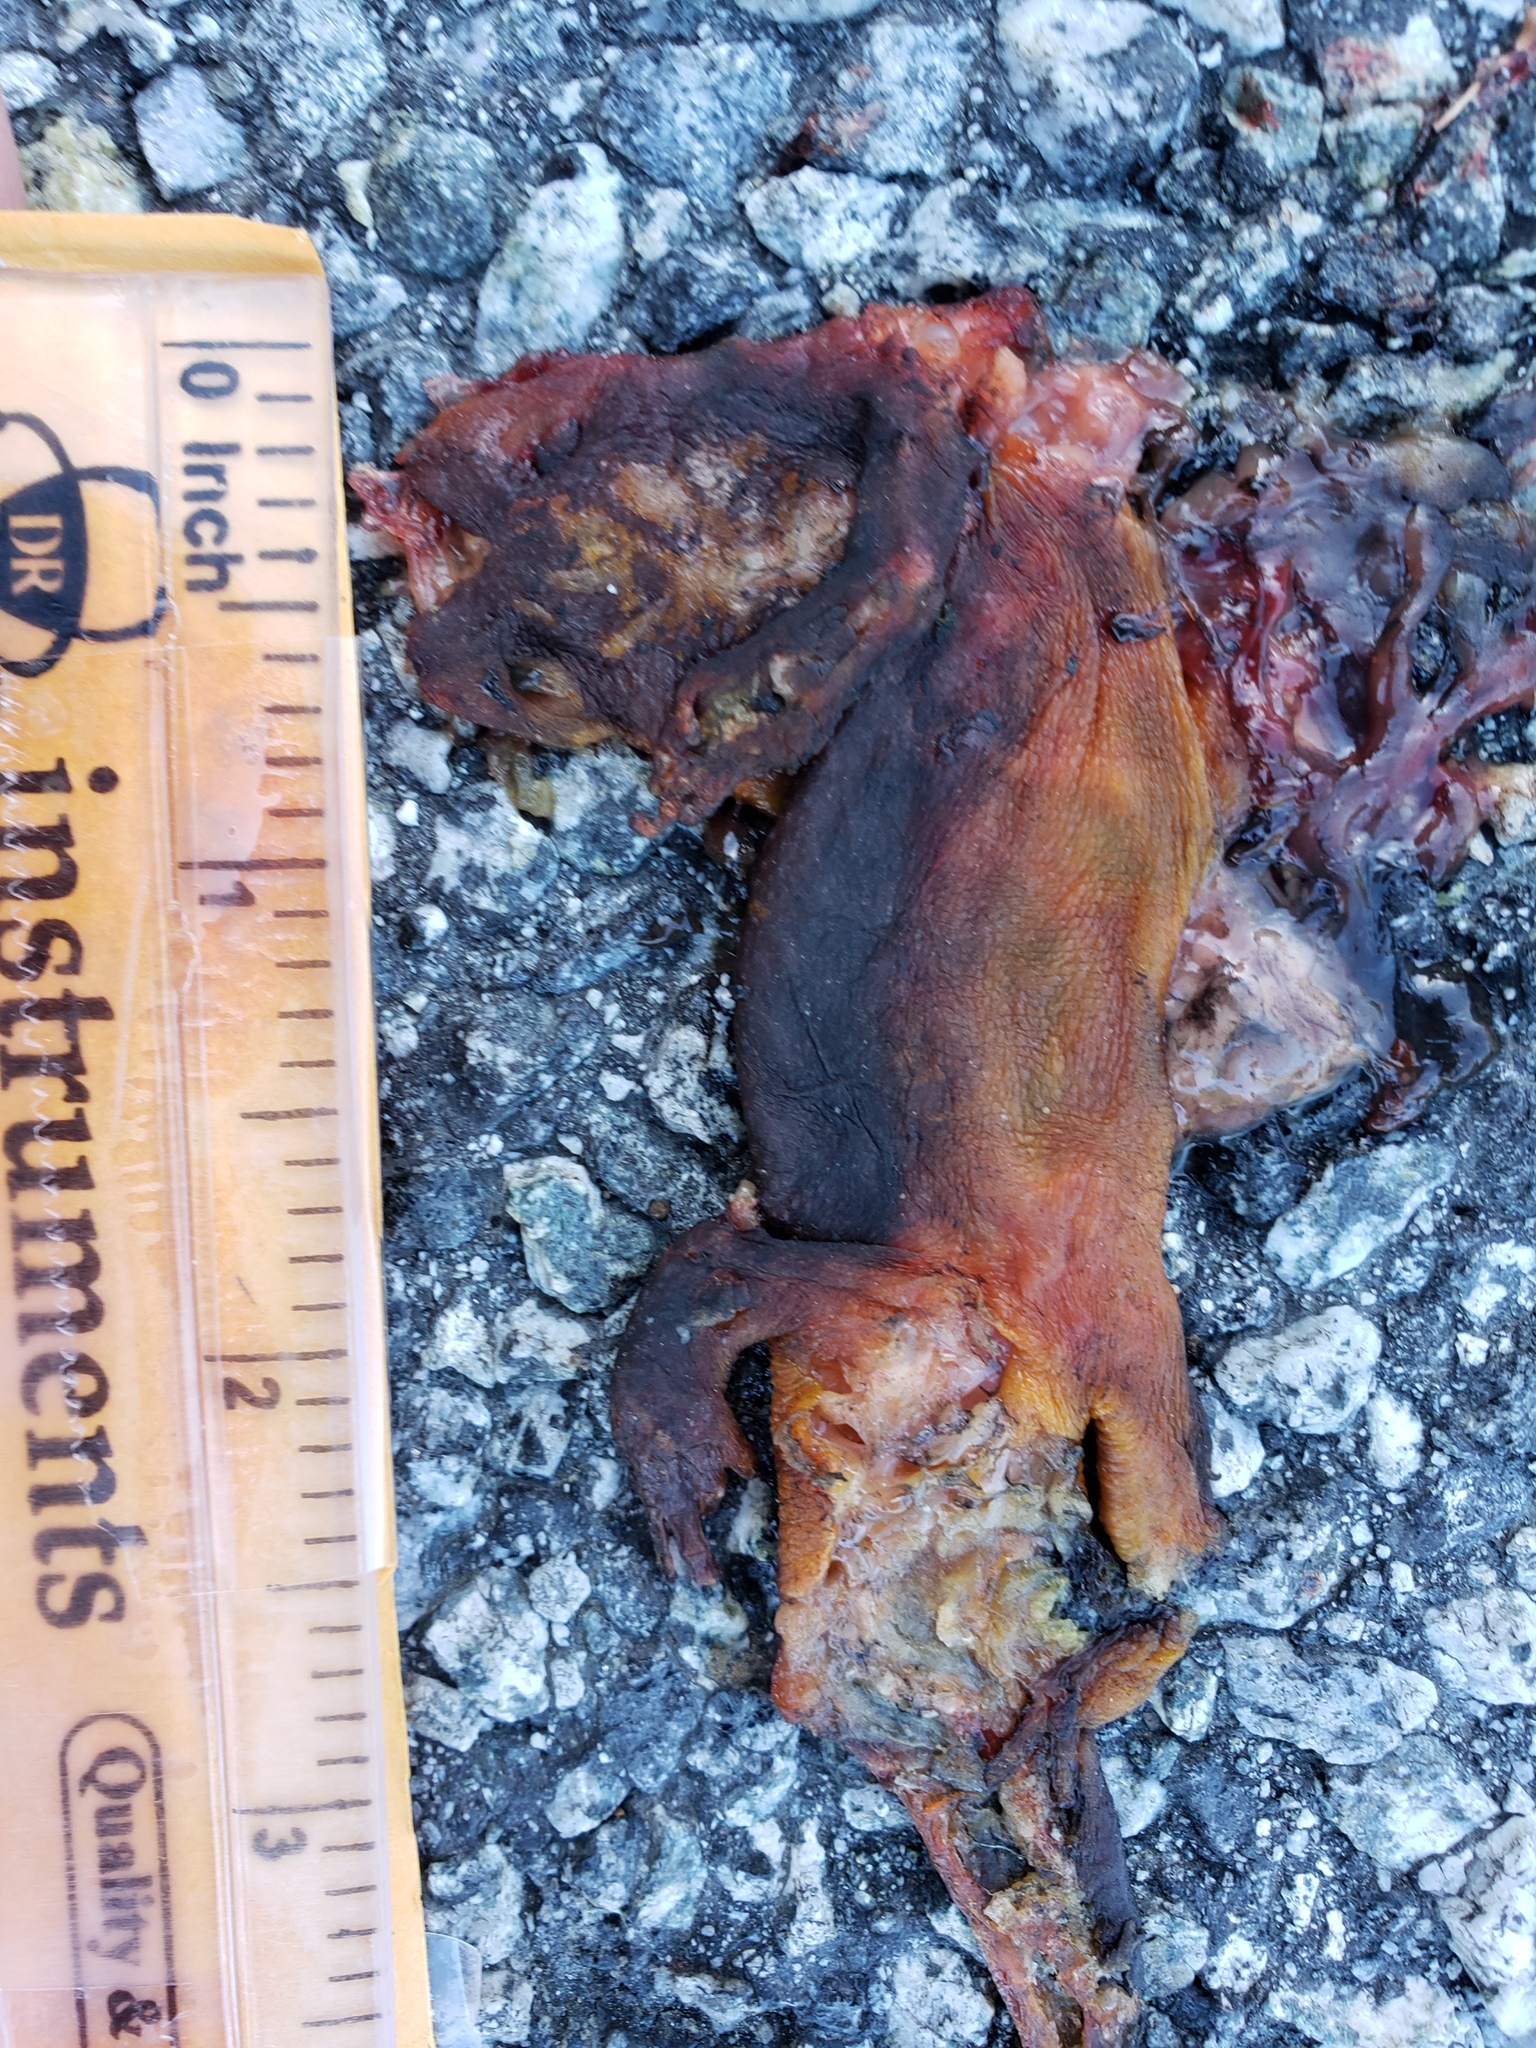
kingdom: Animalia
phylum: Chordata
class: Amphibia
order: Caudata
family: Salamandridae
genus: Taricha
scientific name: Taricha
